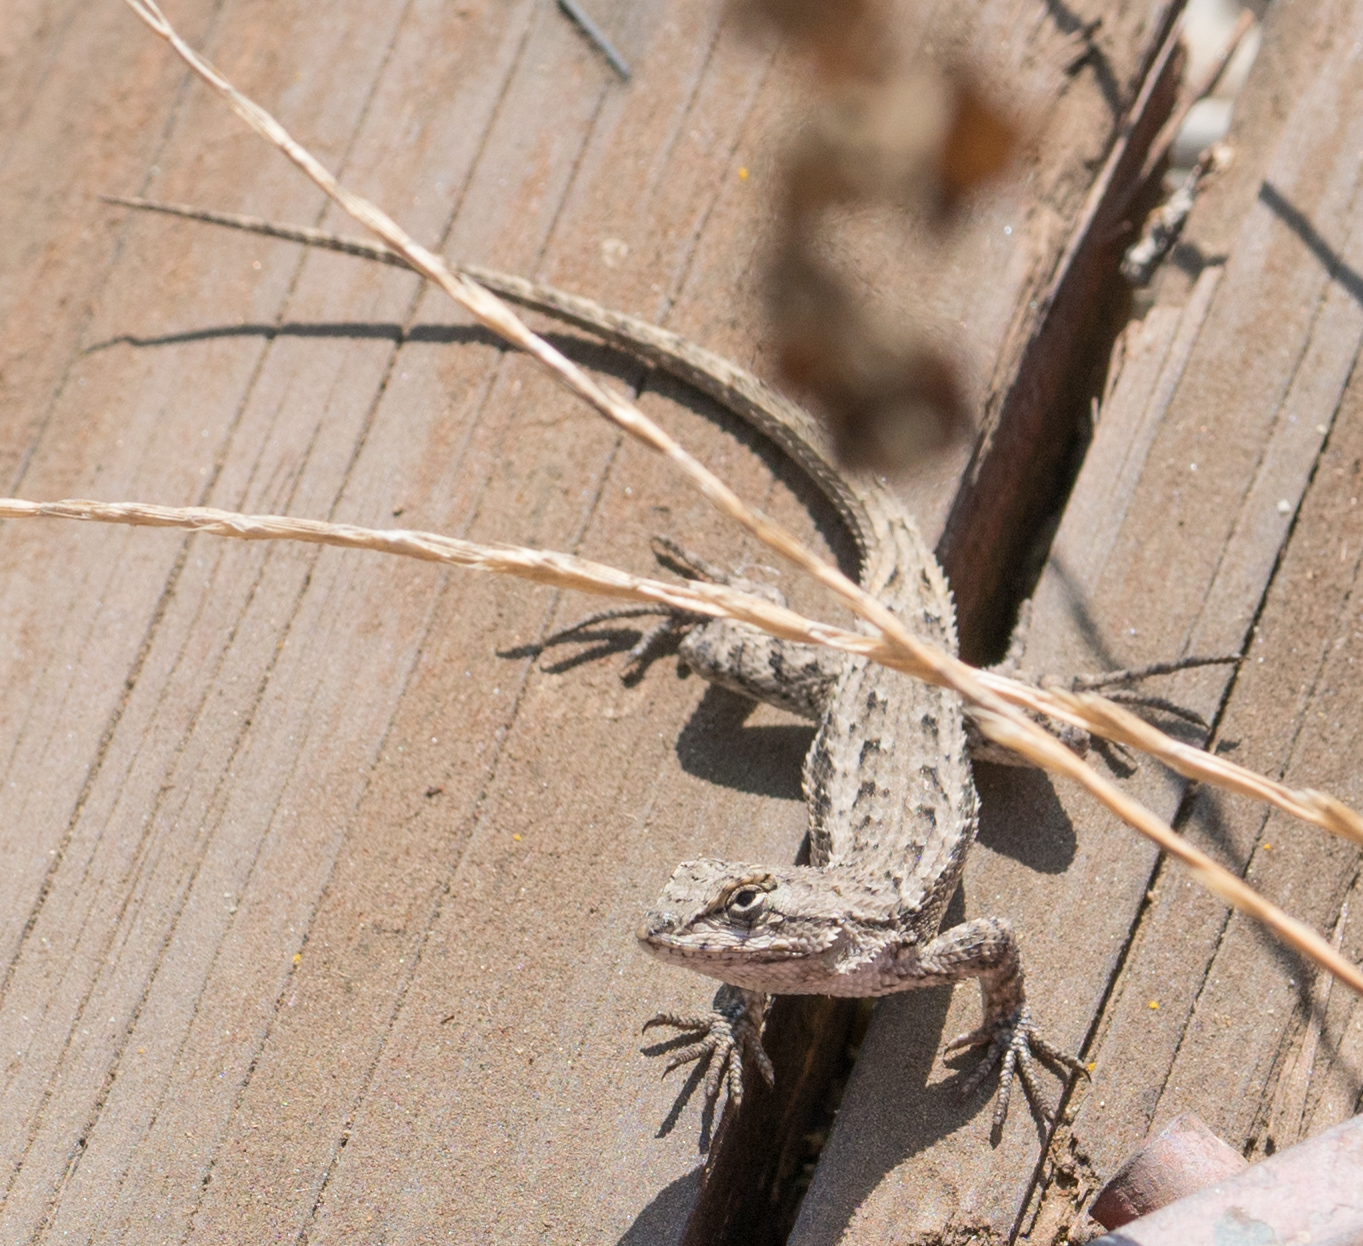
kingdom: Animalia
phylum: Chordata
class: Squamata
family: Phrynosomatidae
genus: Sceloporus
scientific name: Sceloporus occidentalis
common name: Western fence lizard
